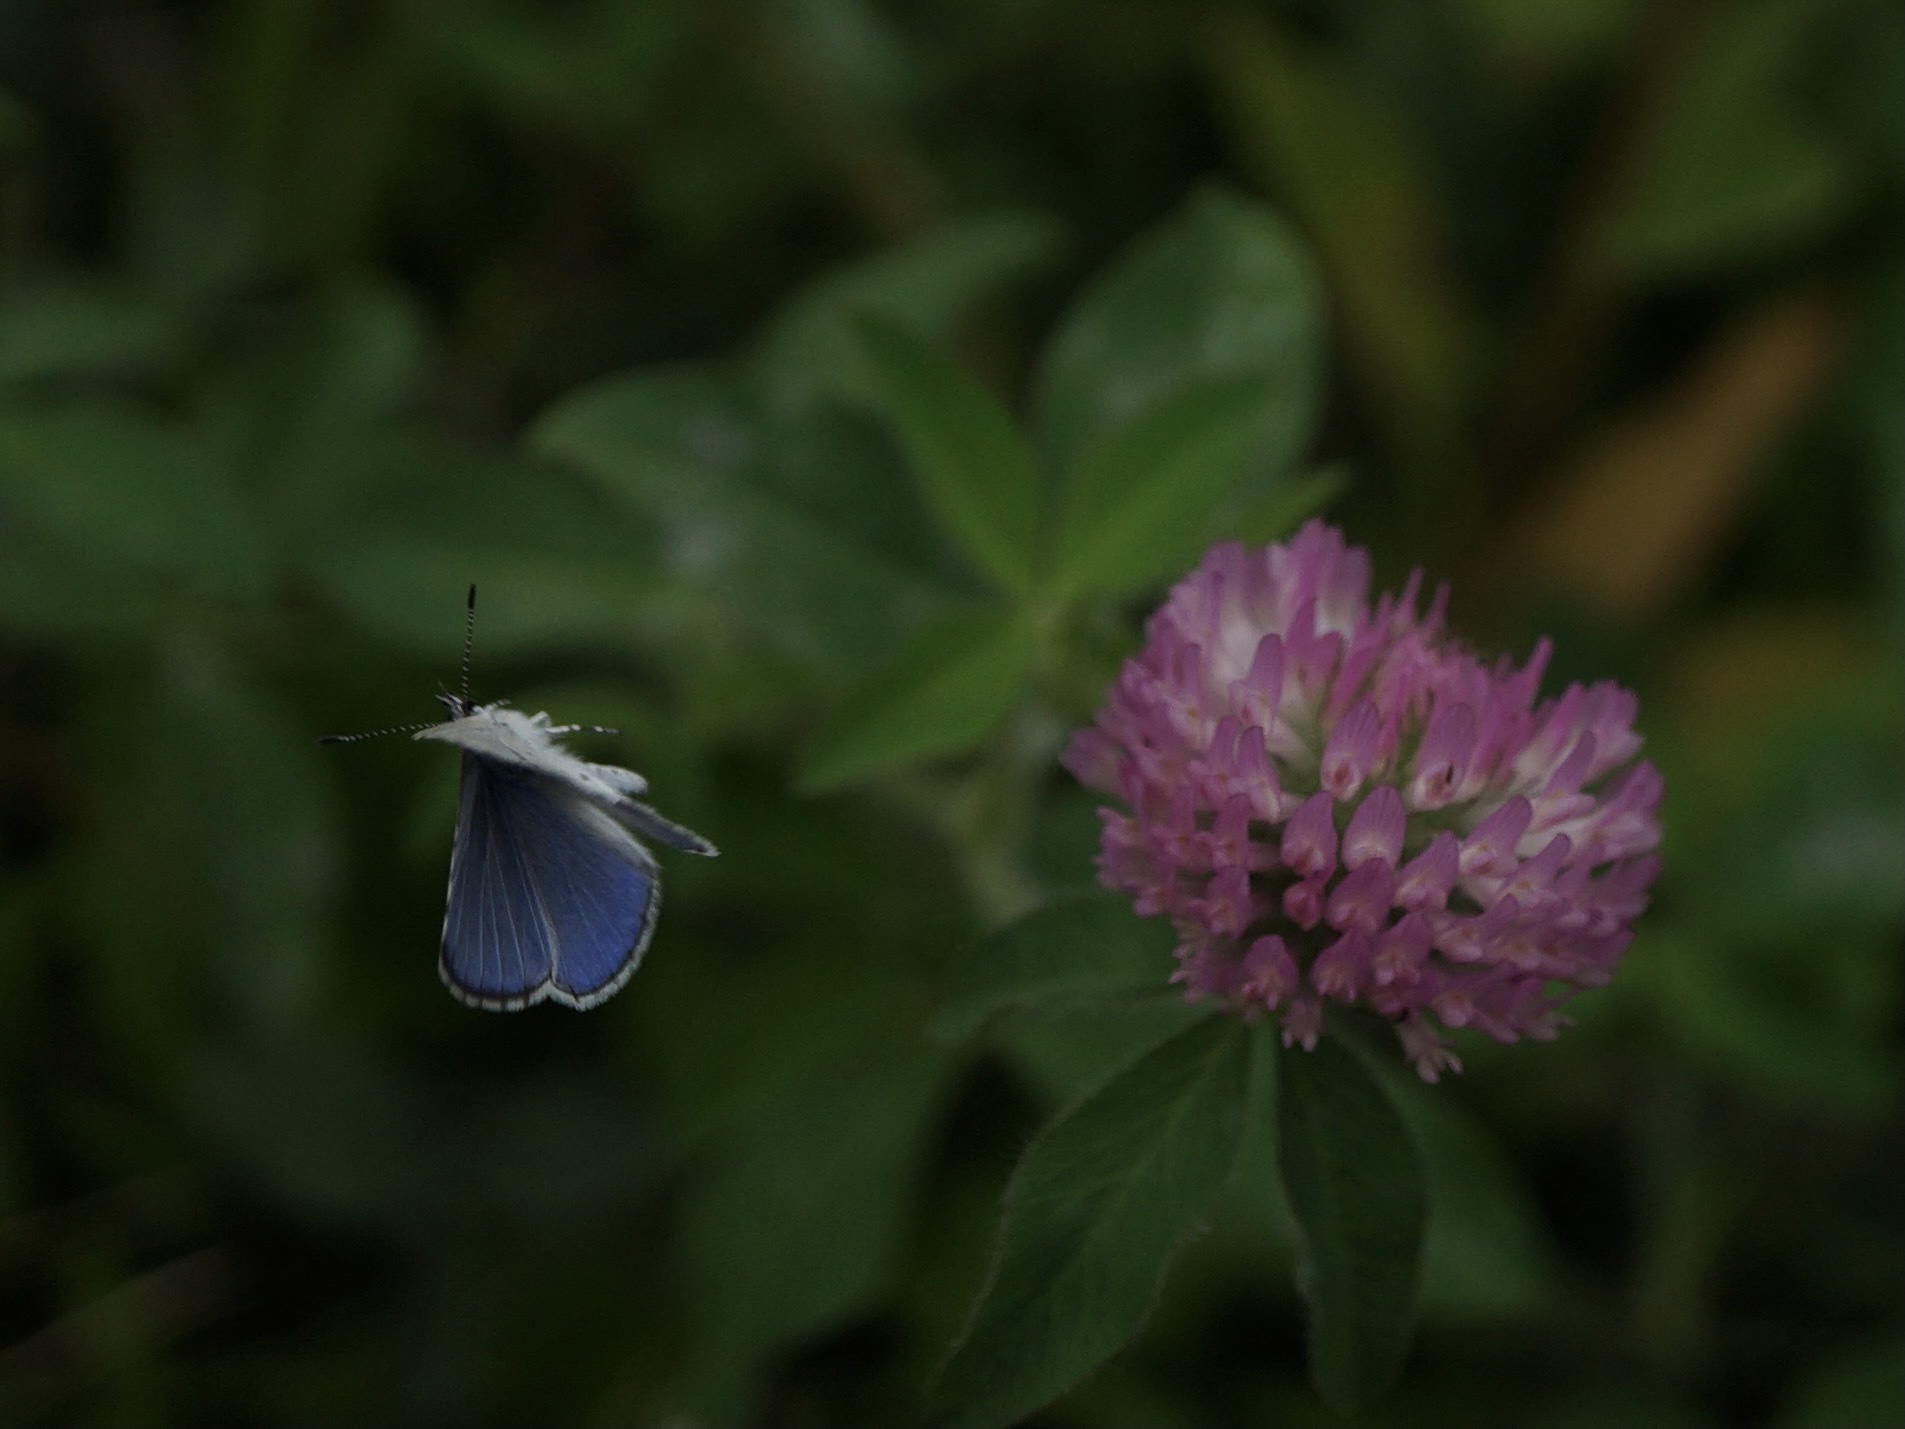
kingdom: Animalia
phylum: Arthropoda
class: Insecta
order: Lepidoptera
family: Lycaenidae
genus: Celastrina
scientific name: Celastrina argiolus
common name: Holly blue
